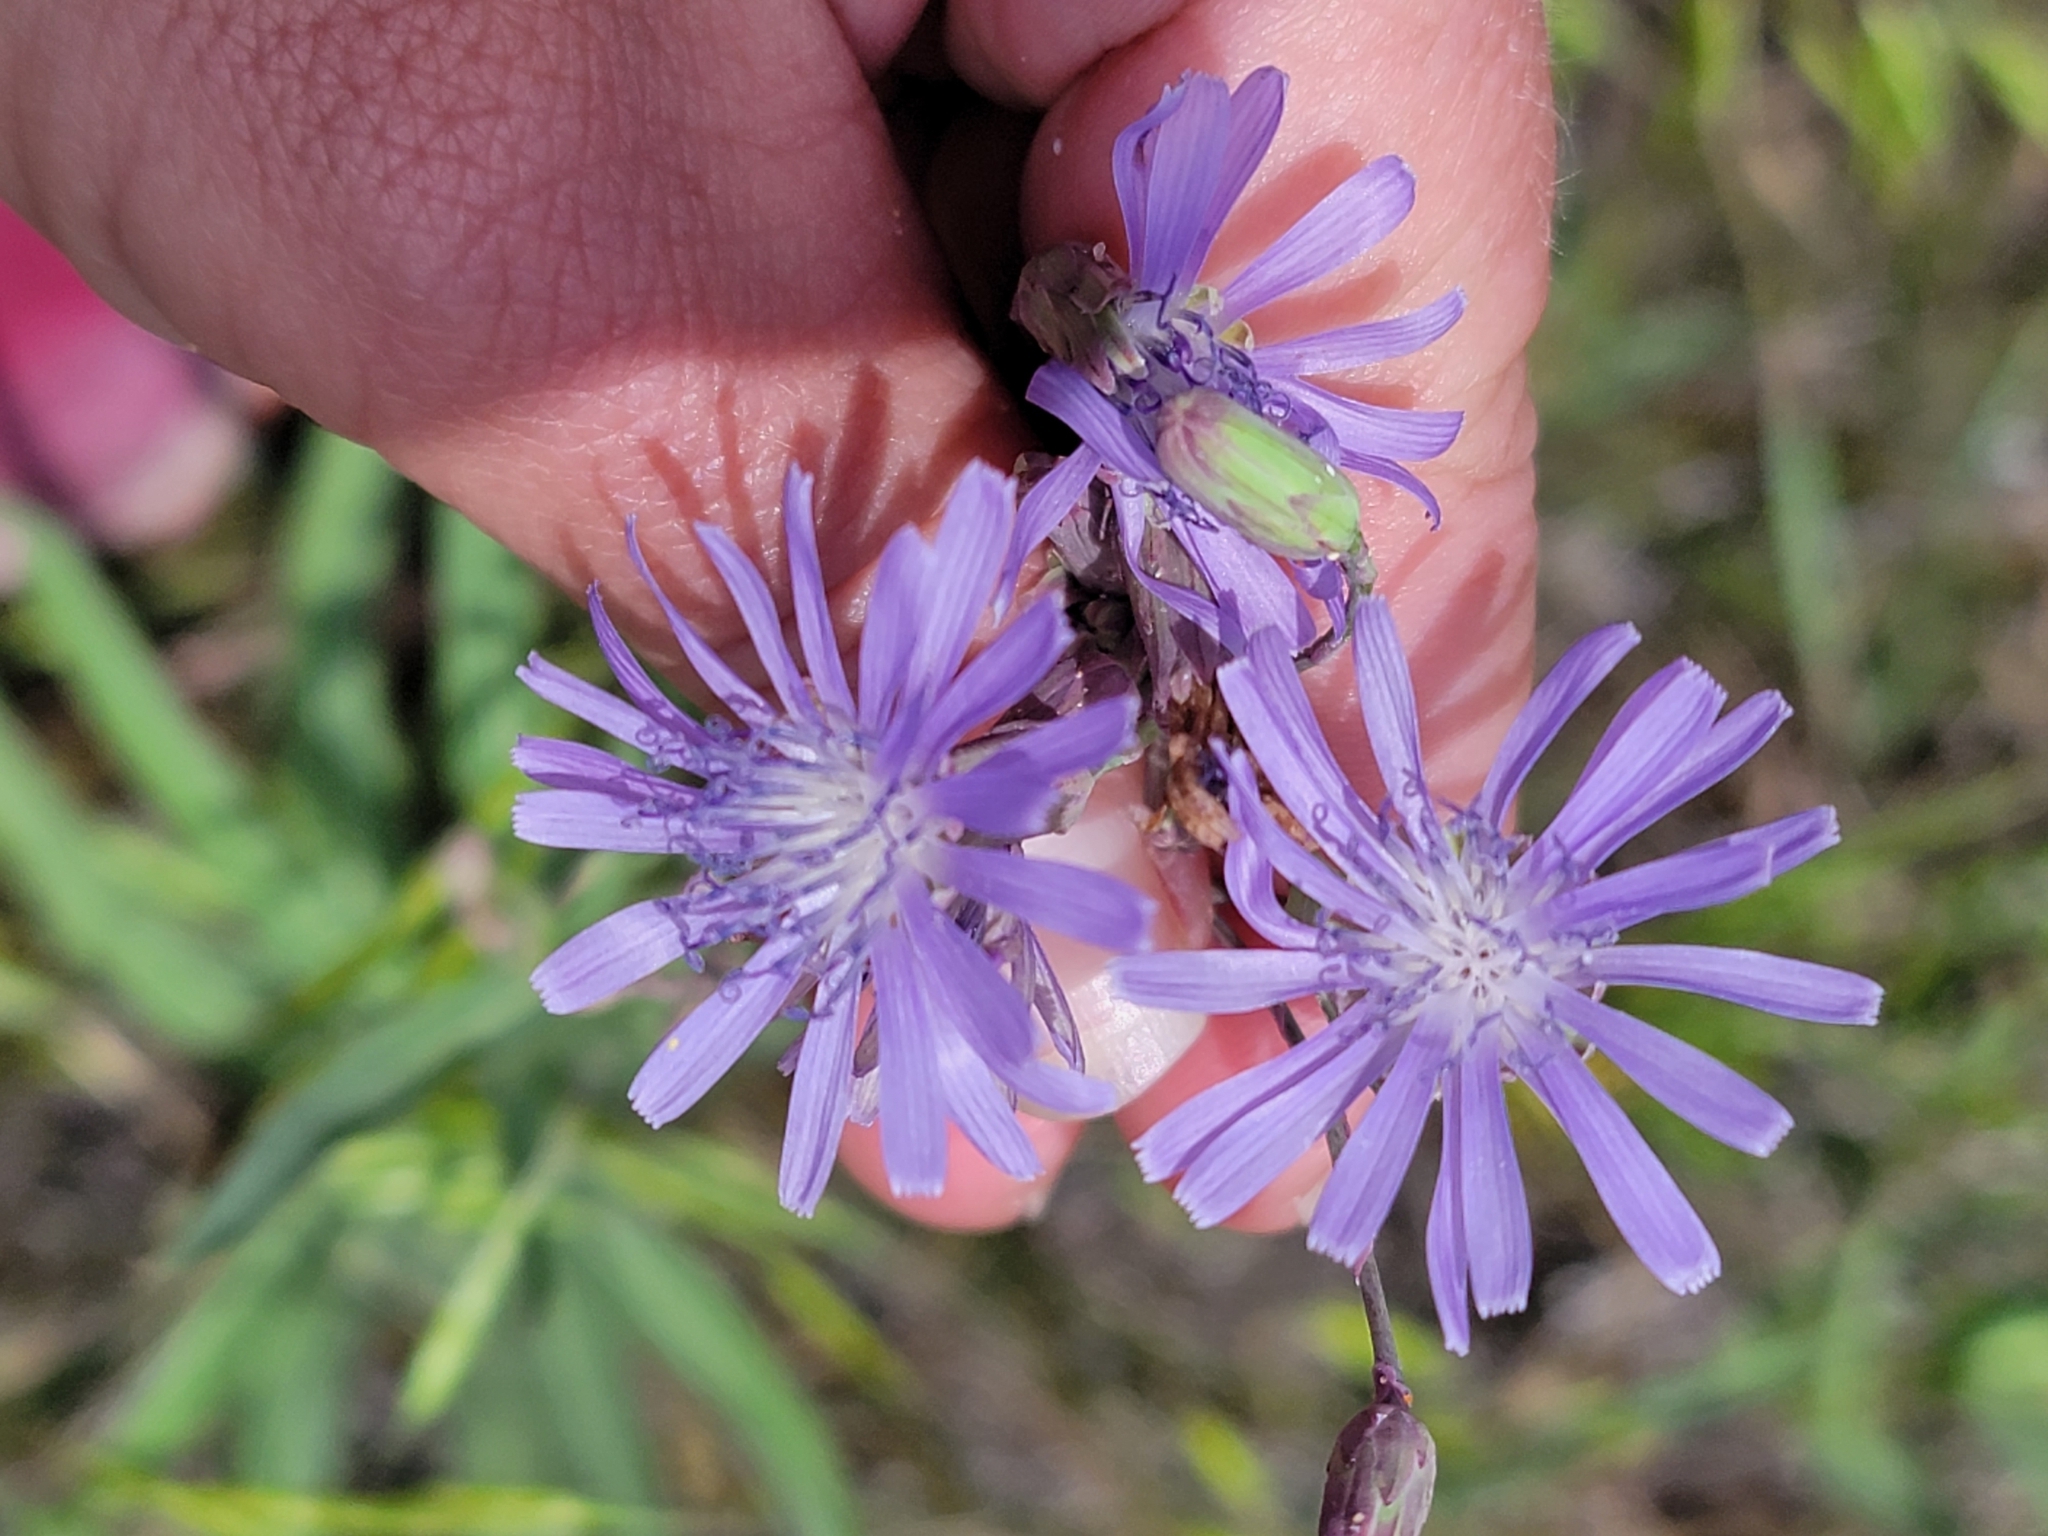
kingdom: Plantae
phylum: Tracheophyta
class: Magnoliopsida
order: Asterales
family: Asteraceae
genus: Lactuca
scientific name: Lactuca tatarica
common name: Blue lettuce
